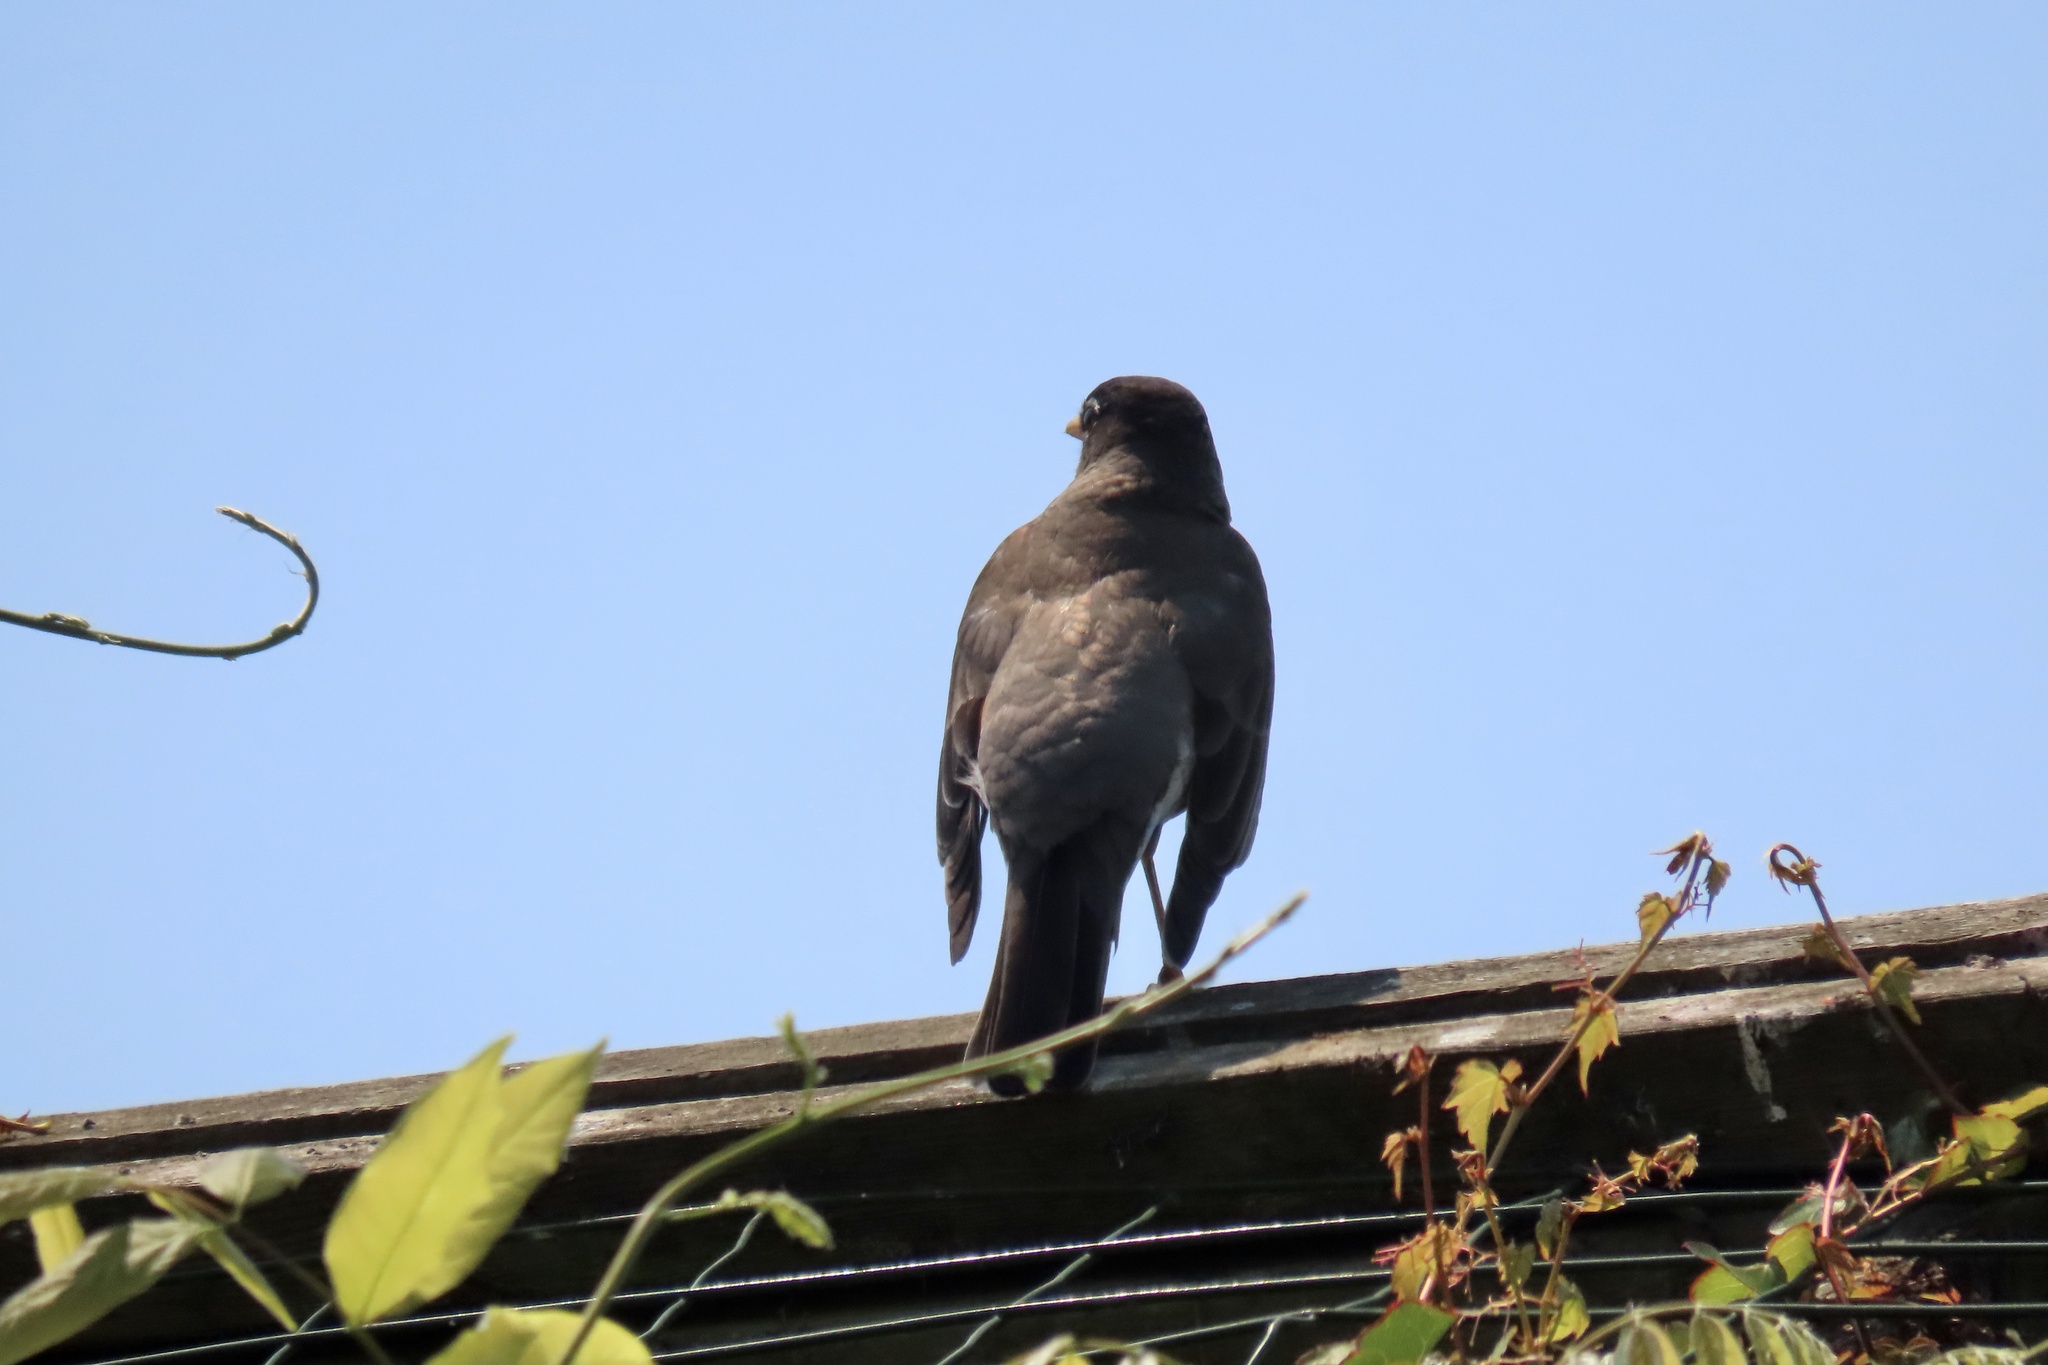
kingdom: Animalia
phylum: Chordata
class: Aves
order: Passeriformes
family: Turdidae
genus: Turdus
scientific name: Turdus migratorius
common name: American robin
